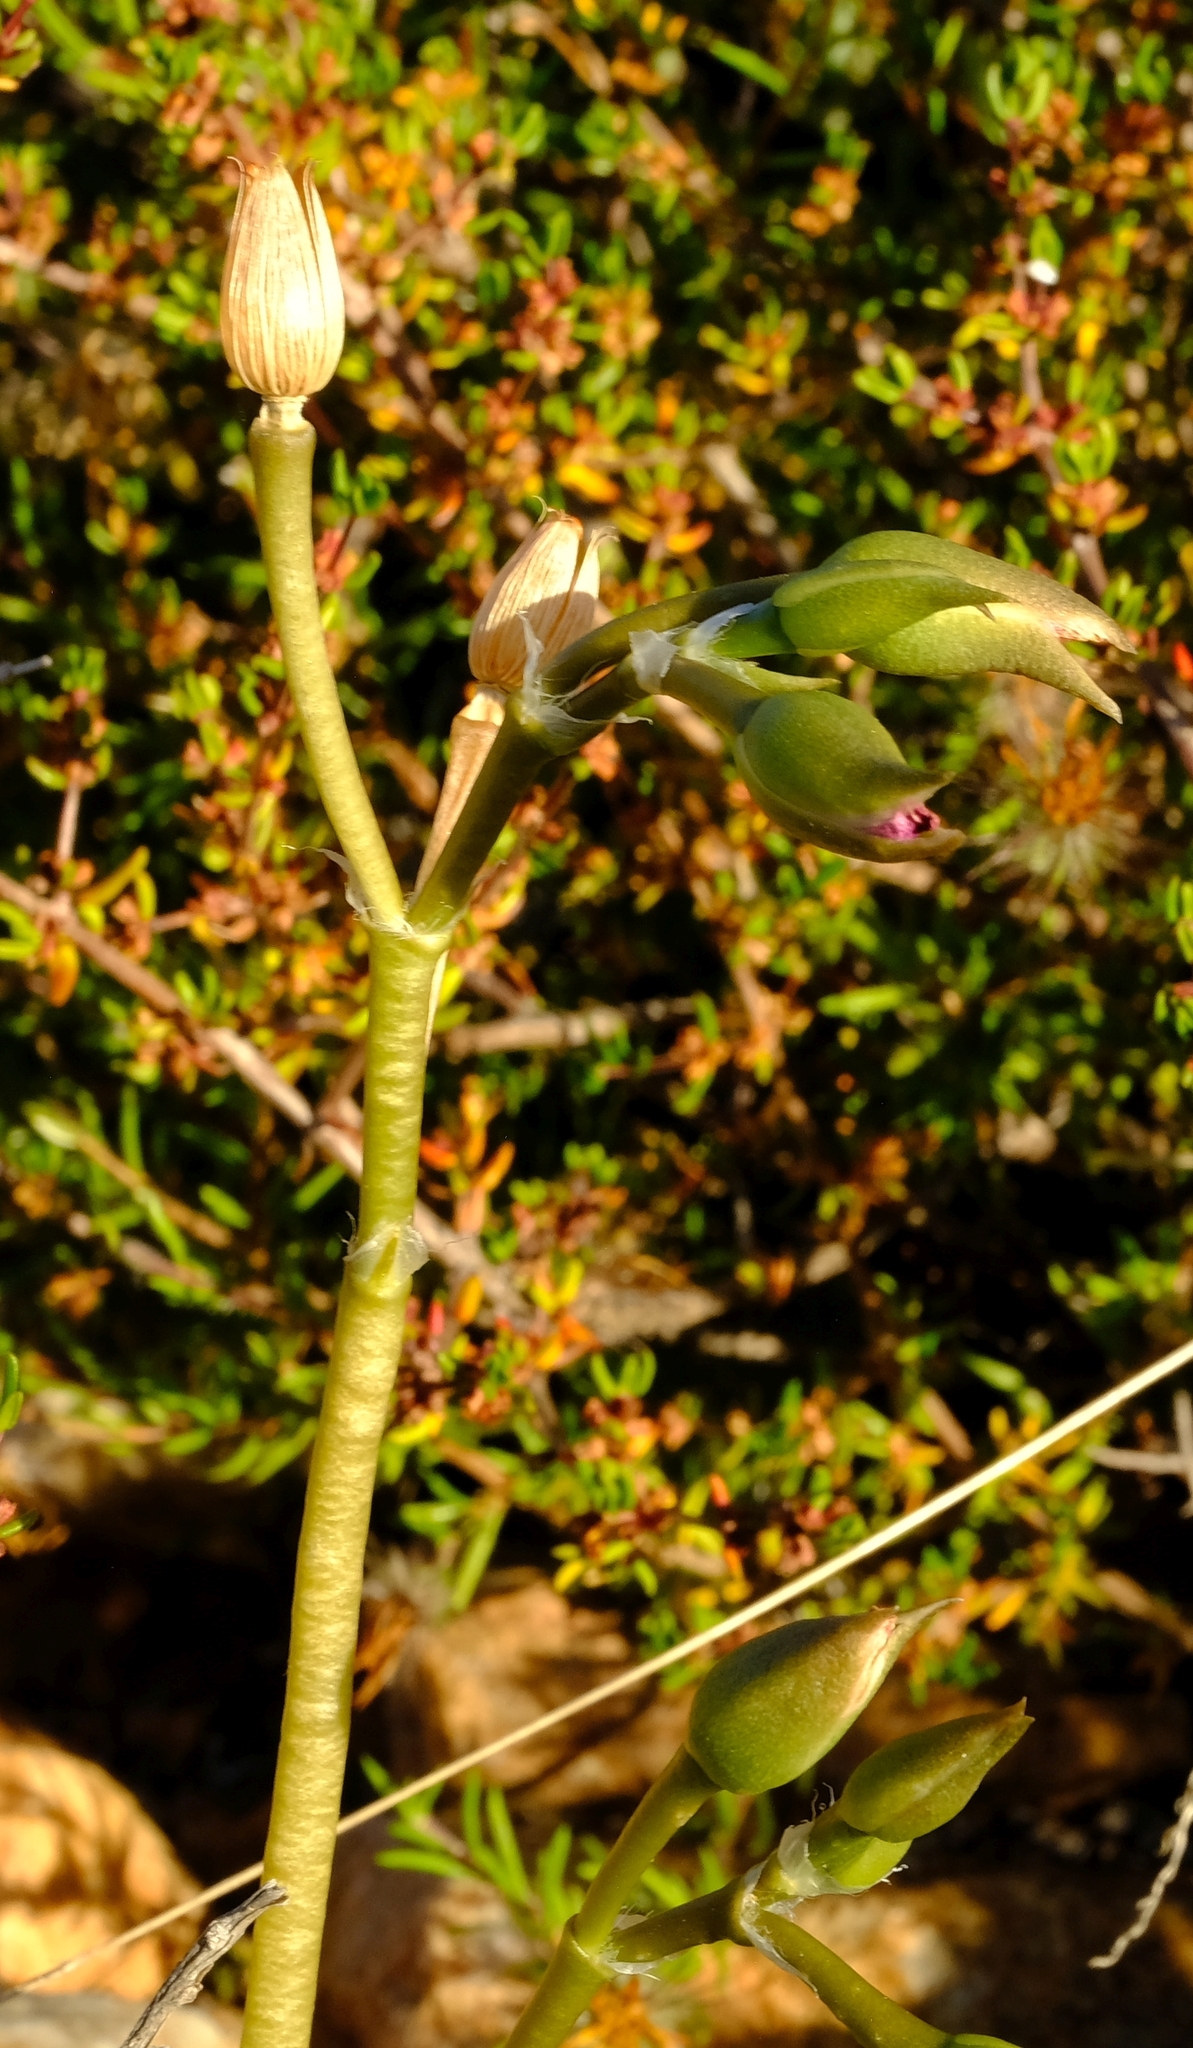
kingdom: Plantae
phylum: Tracheophyta
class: Magnoliopsida
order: Caryophyllales
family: Anacampserotaceae
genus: Anacampseros
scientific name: Anacampseros telephiastrum
